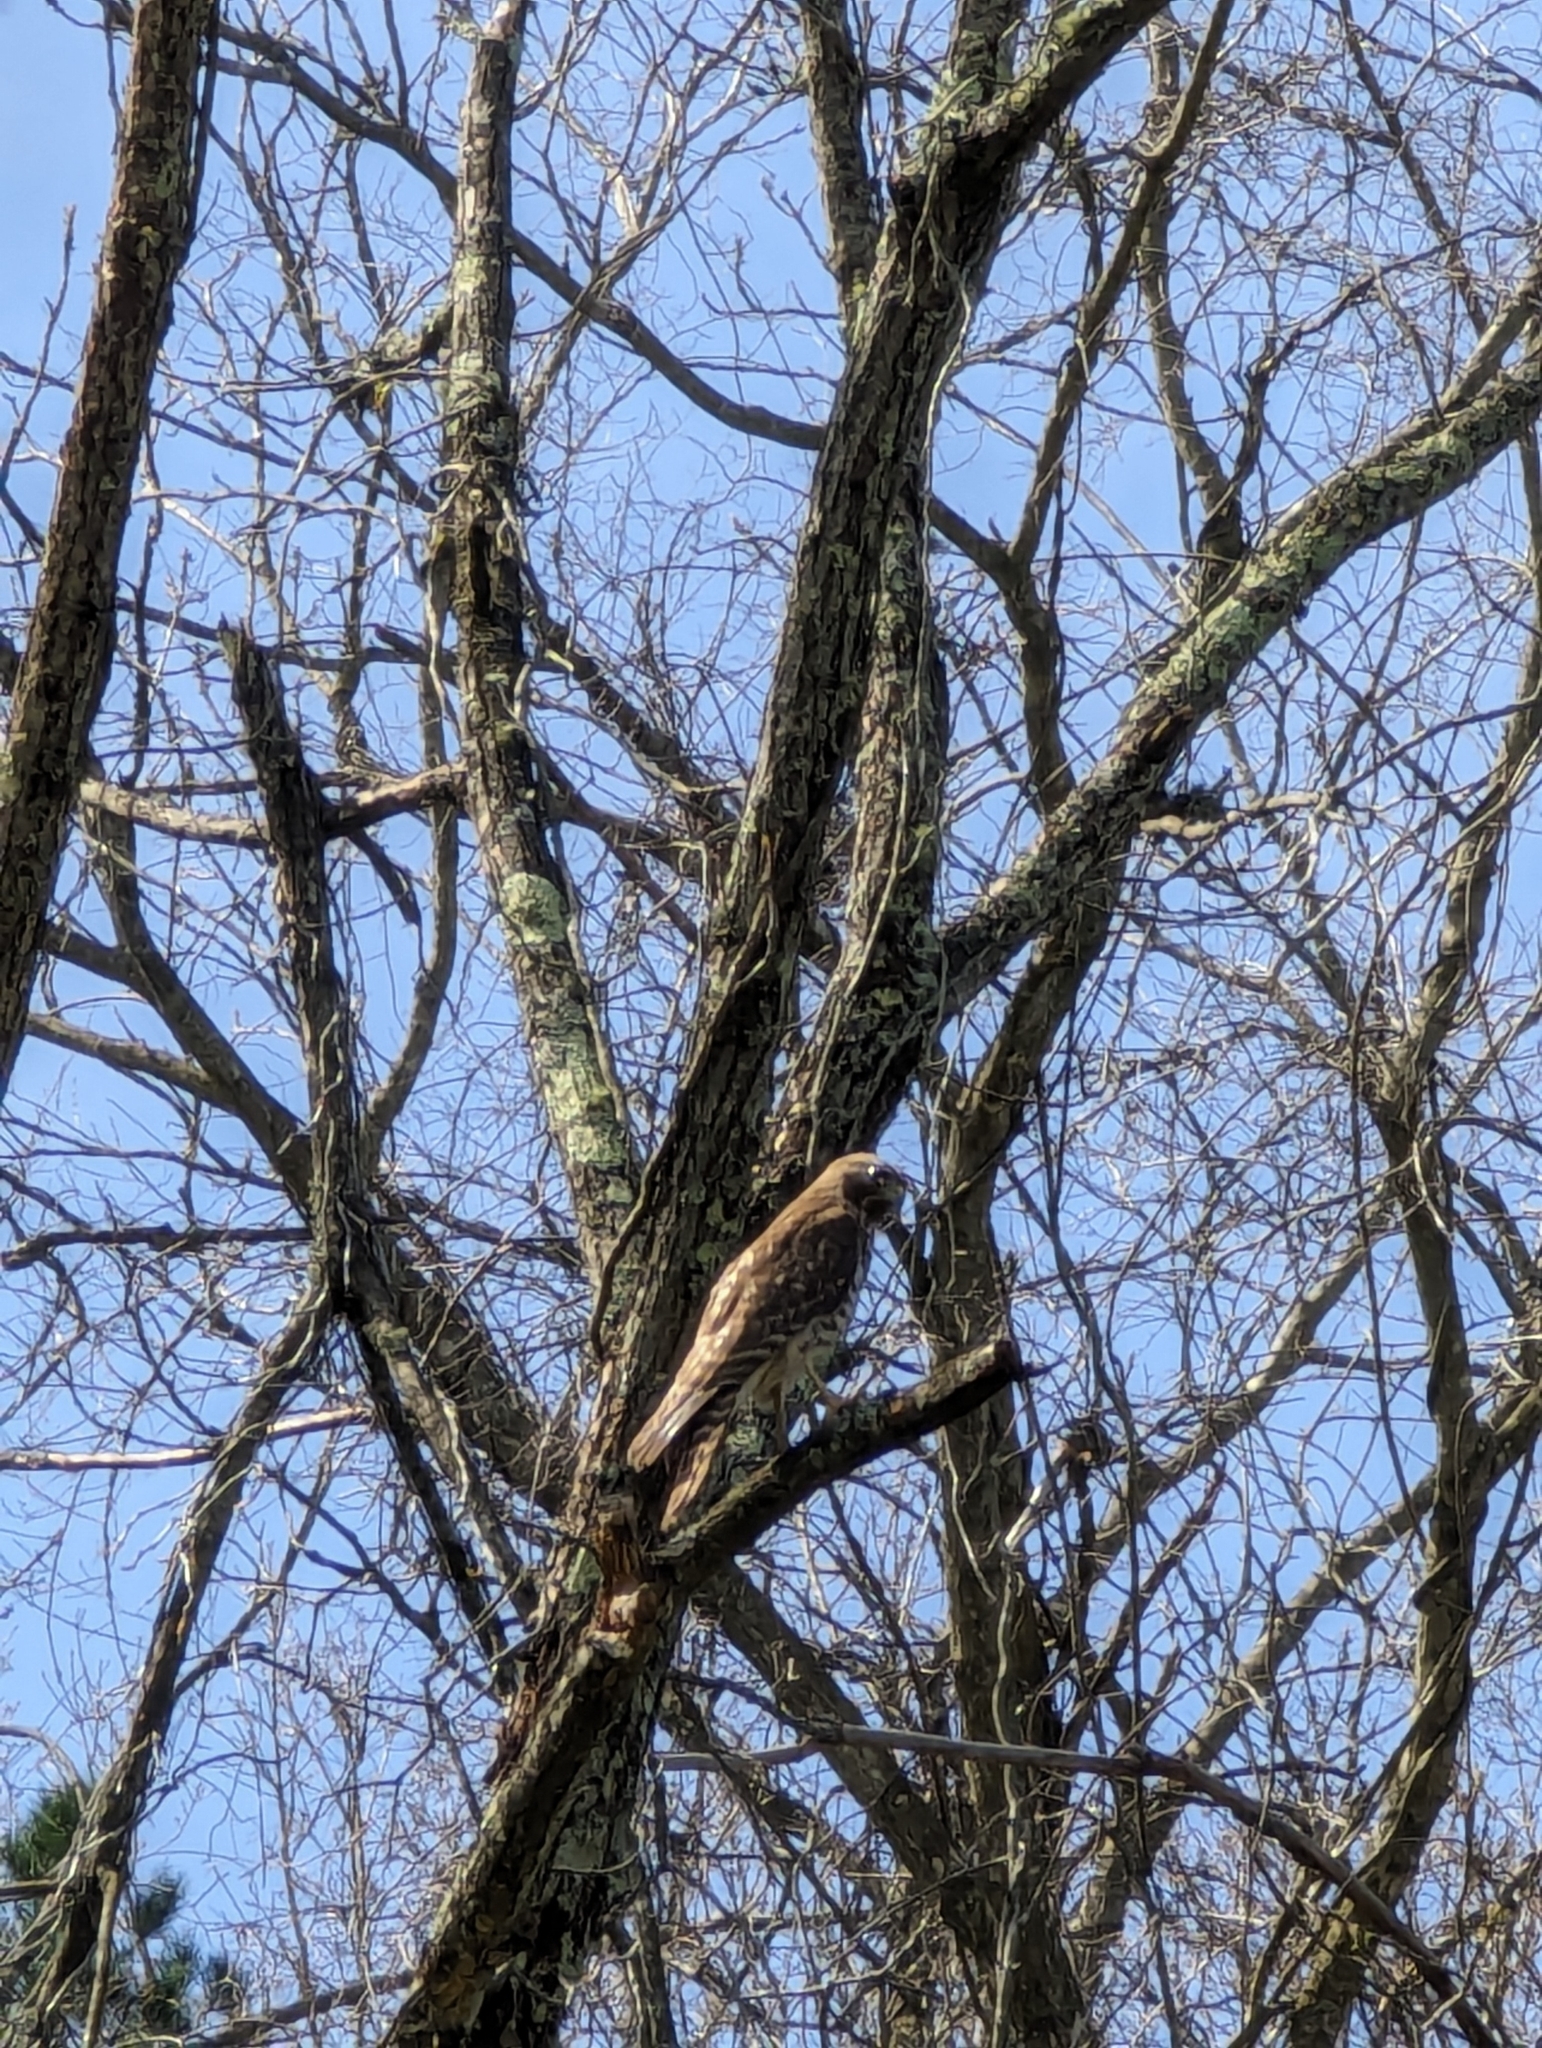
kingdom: Animalia
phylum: Chordata
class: Aves
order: Accipitriformes
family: Accipitridae
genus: Buteo
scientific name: Buteo lineatus
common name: Red-shouldered hawk
